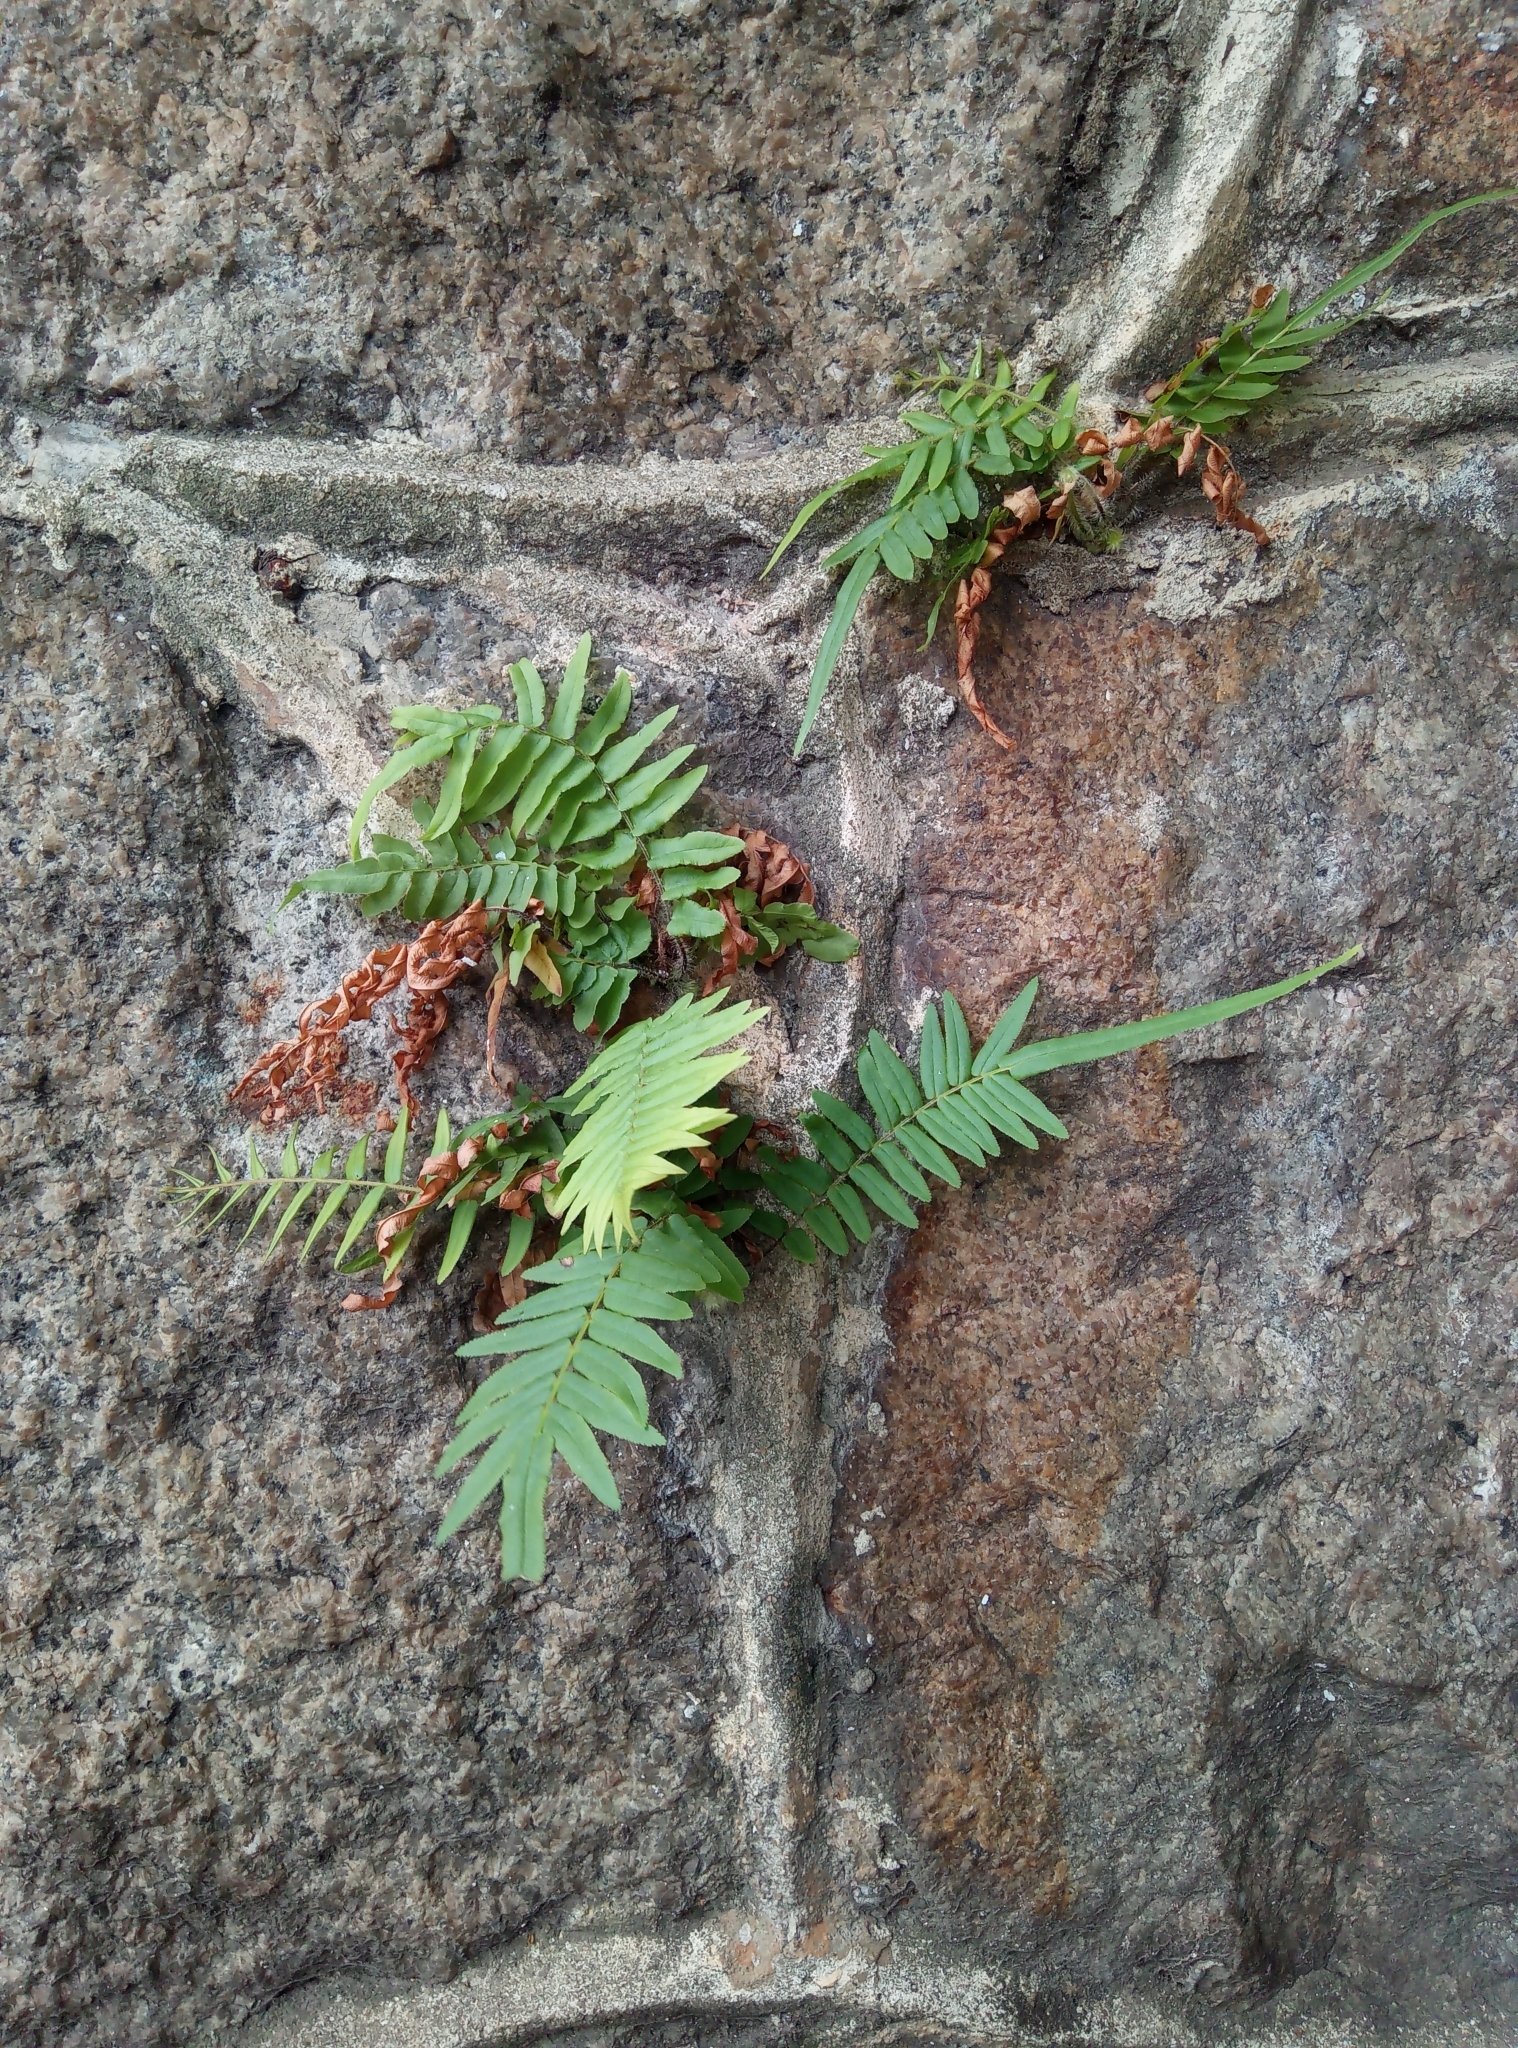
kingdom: Plantae
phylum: Tracheophyta
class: Polypodiopsida
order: Polypodiales
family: Pteridaceae
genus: Pteris
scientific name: Pteris vittata
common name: Ladder brake
